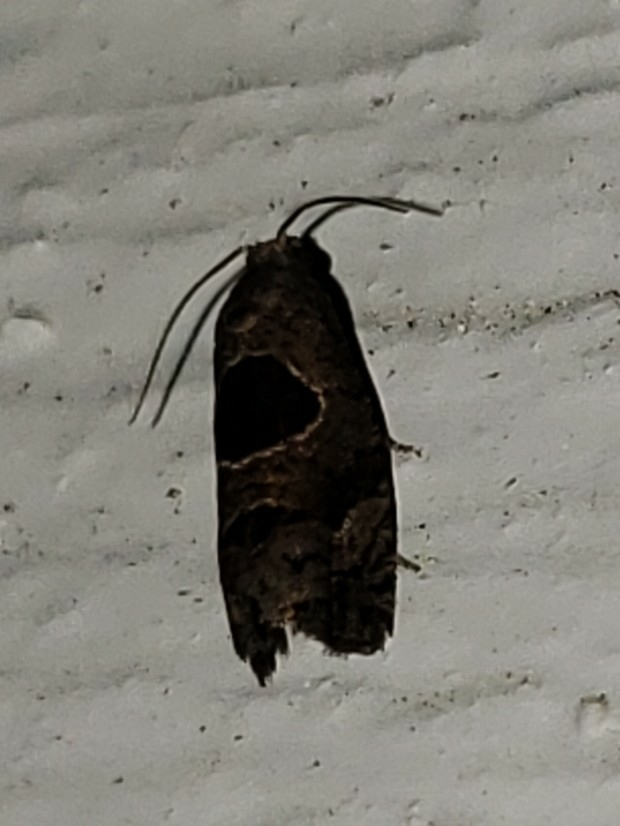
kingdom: Animalia
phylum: Arthropoda
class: Insecta
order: Lepidoptera
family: Tortricidae
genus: Epiblema
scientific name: Epiblema brightonana
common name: Brighton's epiblema moth
